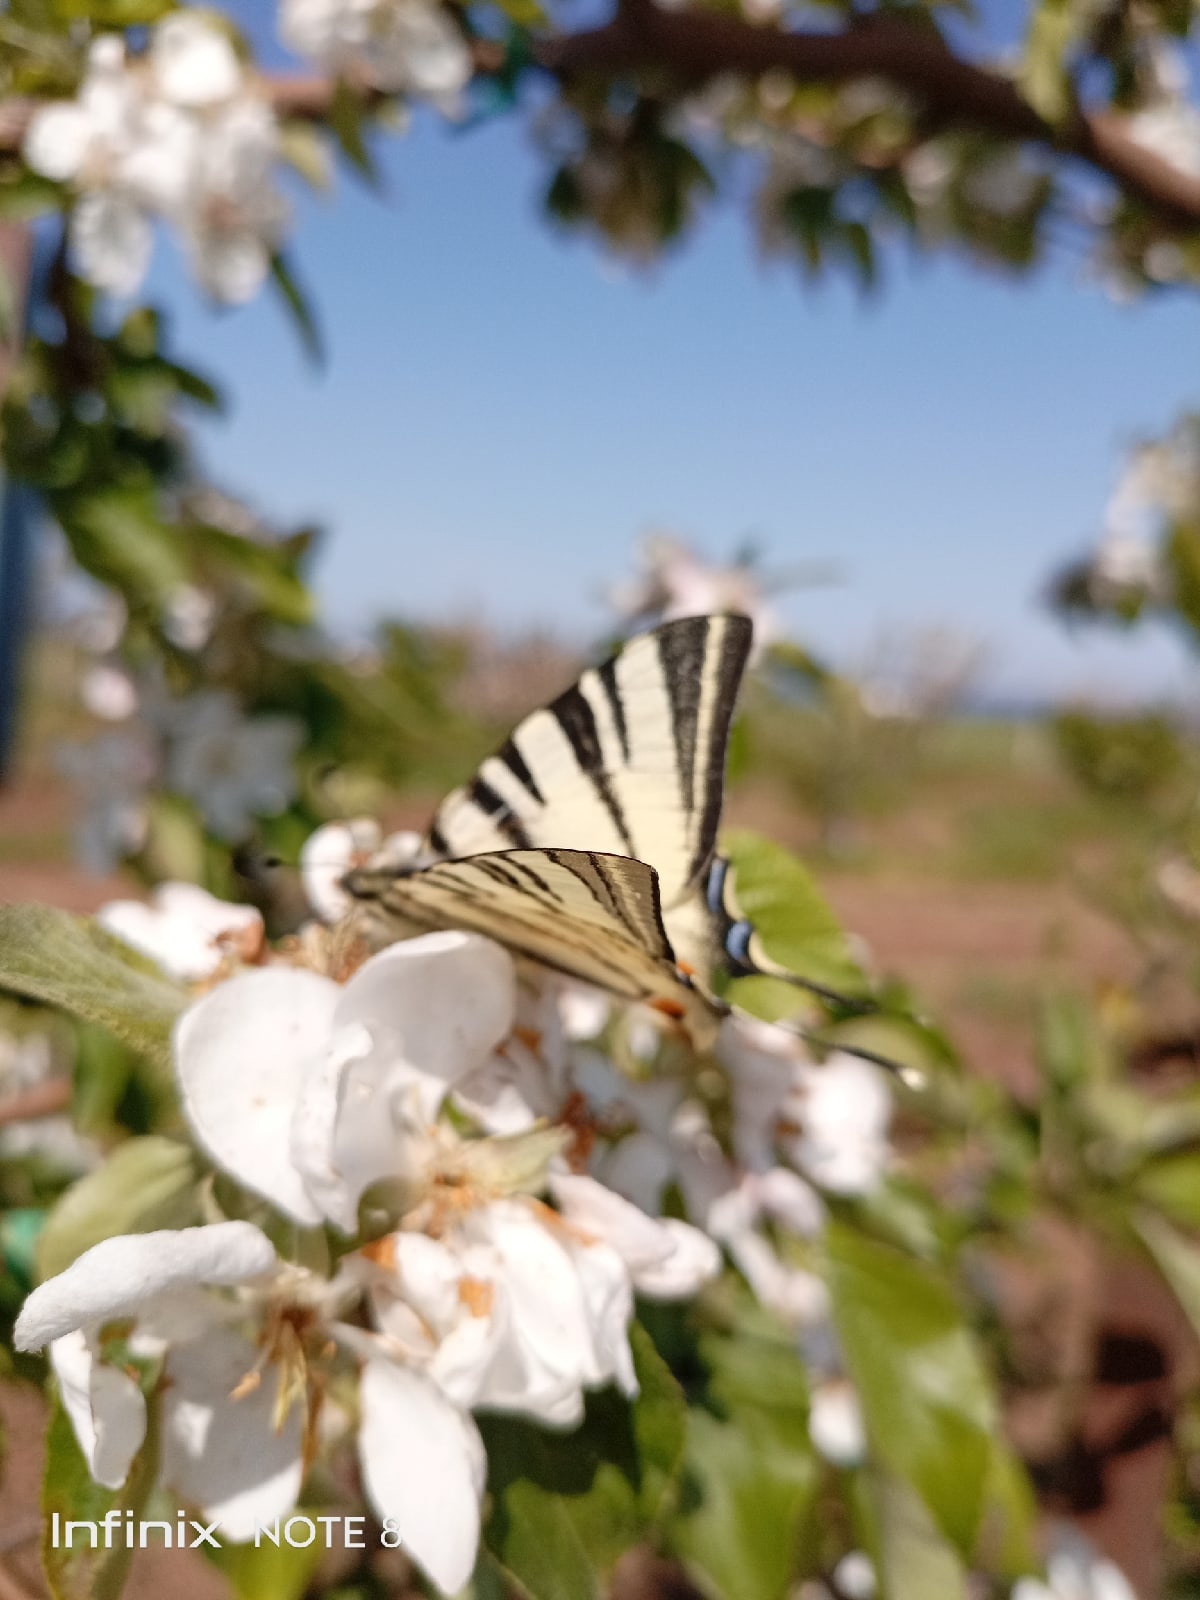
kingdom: Animalia
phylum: Arthropoda
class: Insecta
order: Lepidoptera
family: Papilionidae
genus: Iphiclides
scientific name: Iphiclides podalirius
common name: Scarce swallowtail
